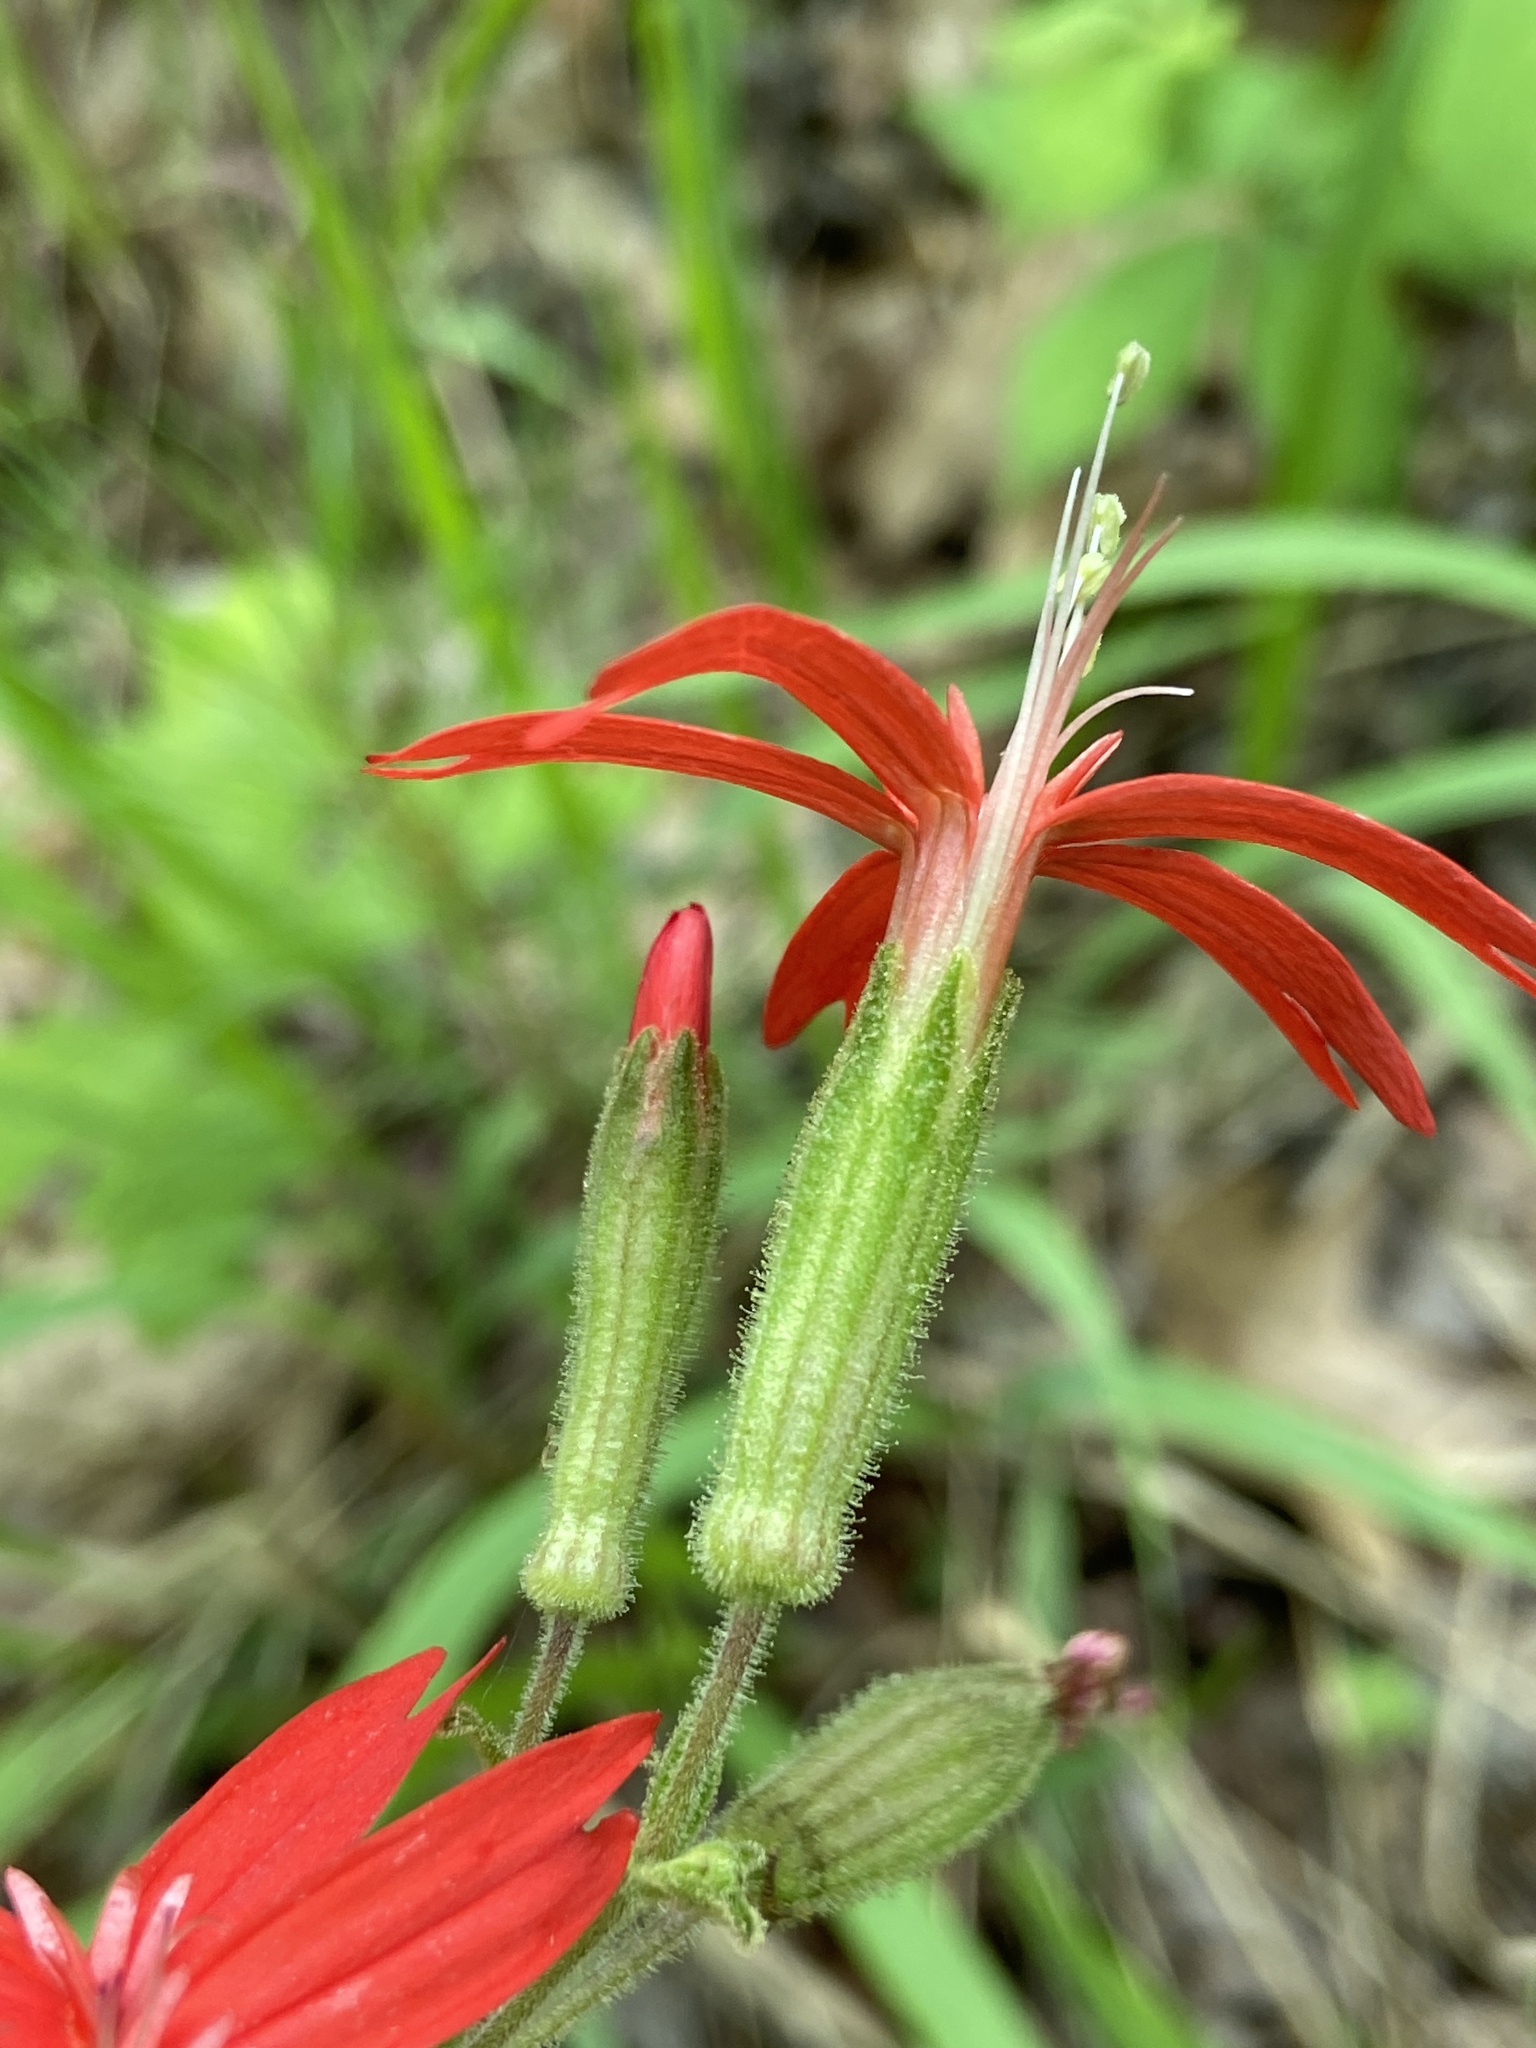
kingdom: Plantae
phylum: Tracheophyta
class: Magnoliopsida
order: Caryophyllales
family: Caryophyllaceae
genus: Silene
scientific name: Silene virginica
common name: Fire-pink
